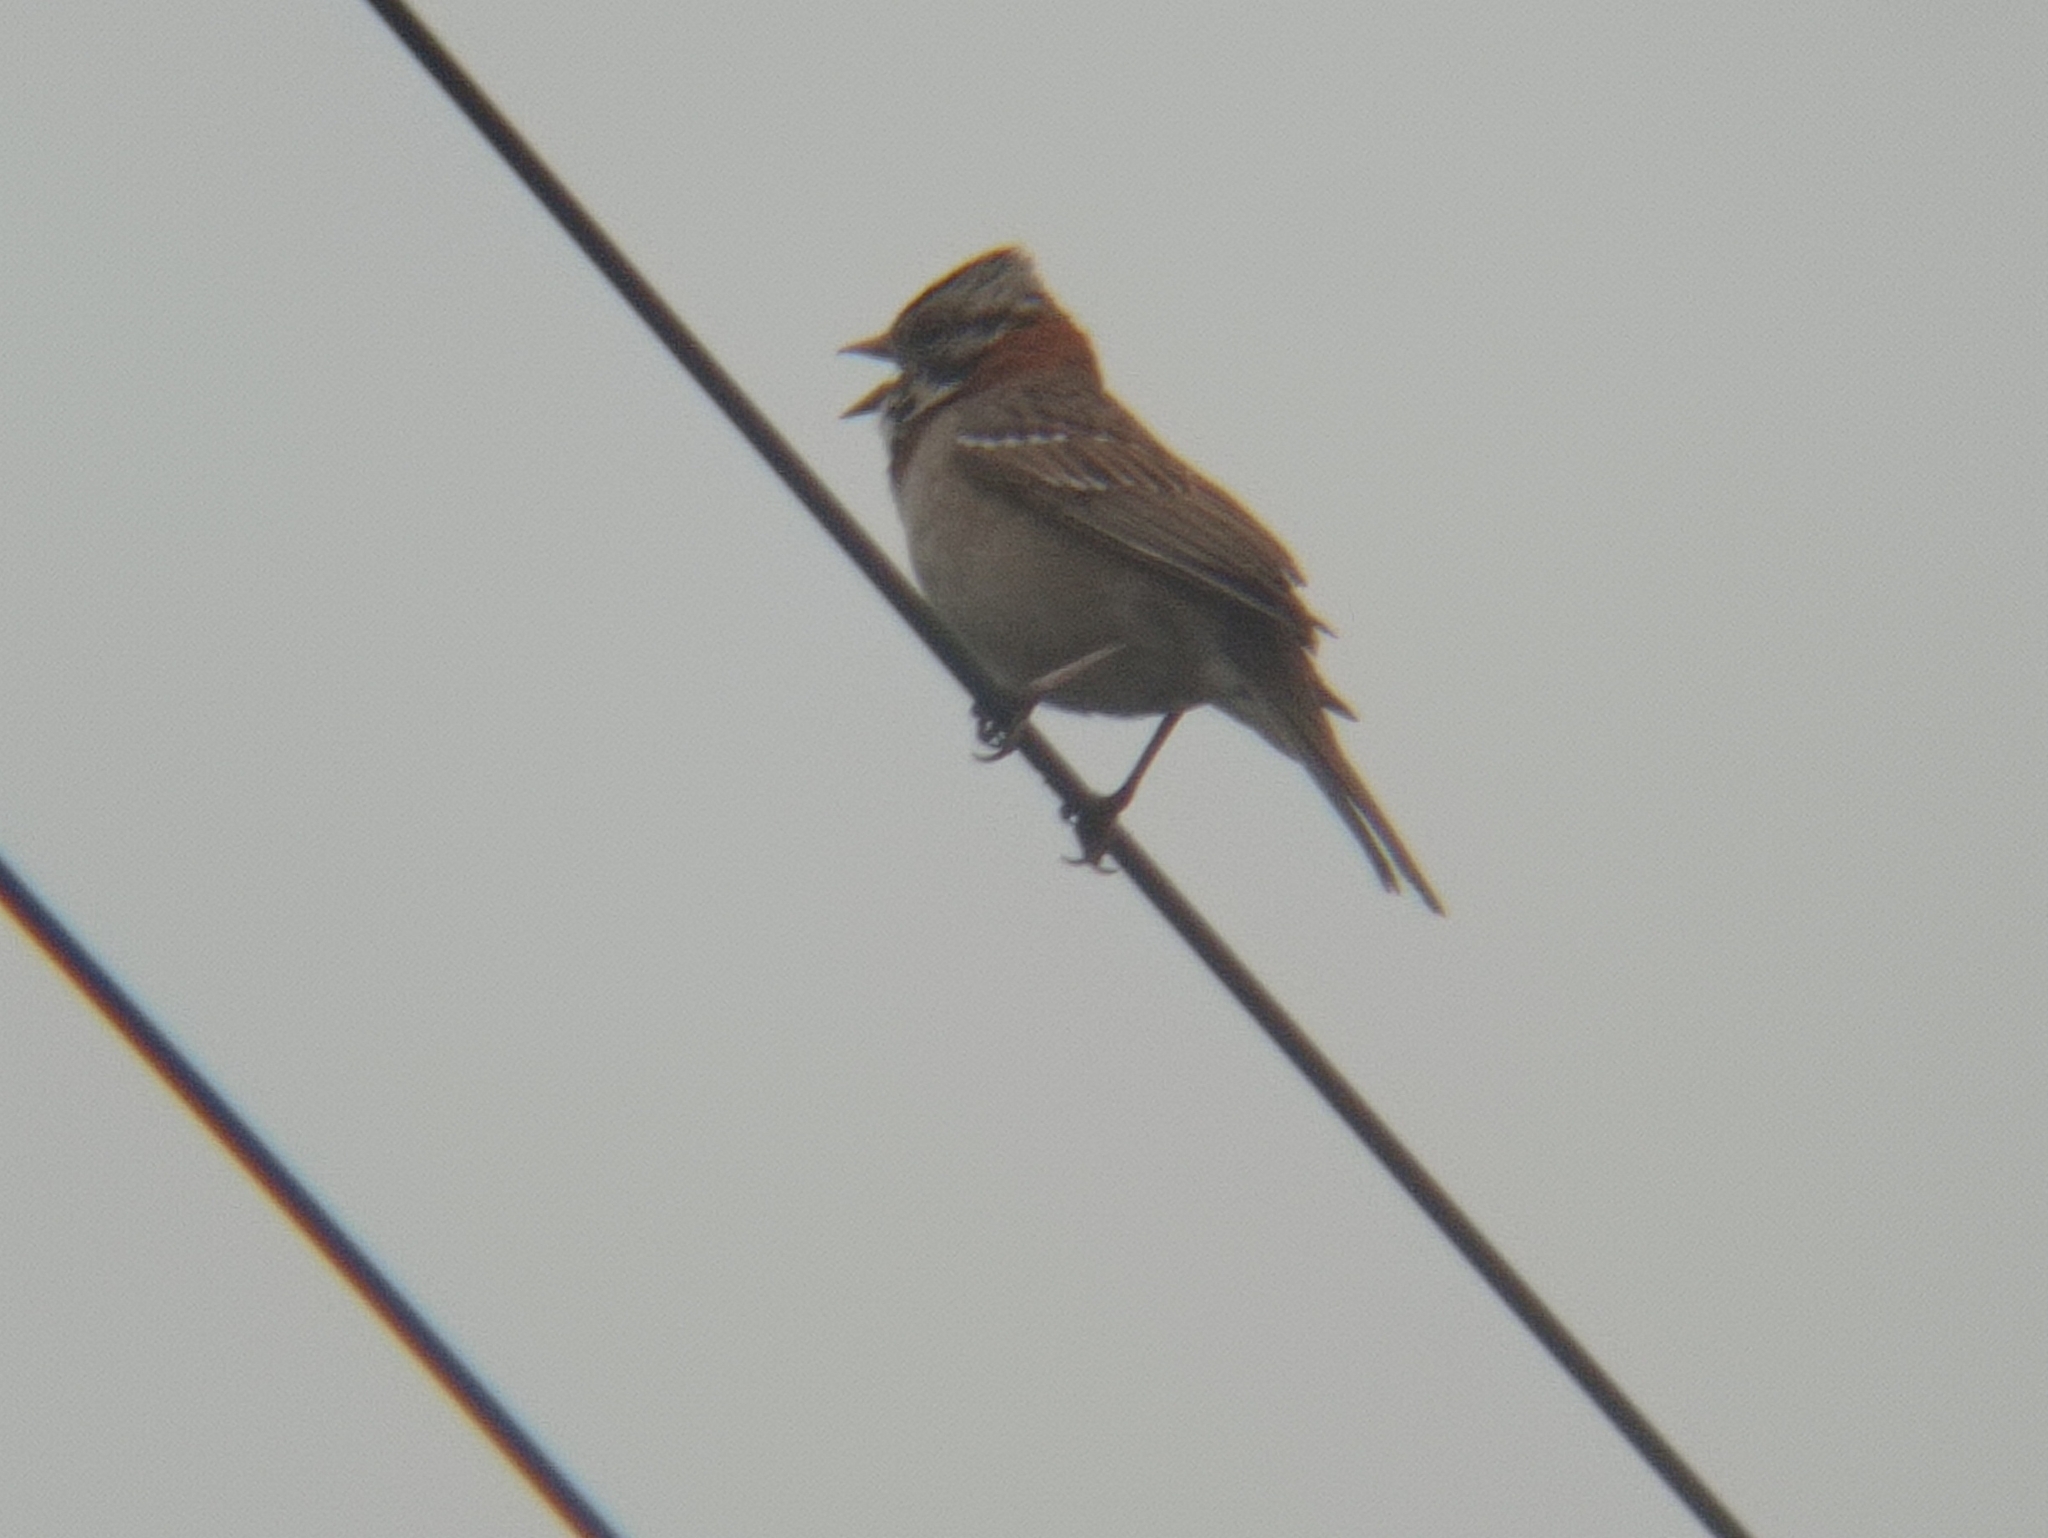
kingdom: Animalia
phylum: Chordata
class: Aves
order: Passeriformes
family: Passerellidae
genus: Zonotrichia
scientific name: Zonotrichia capensis
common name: Rufous-collared sparrow
